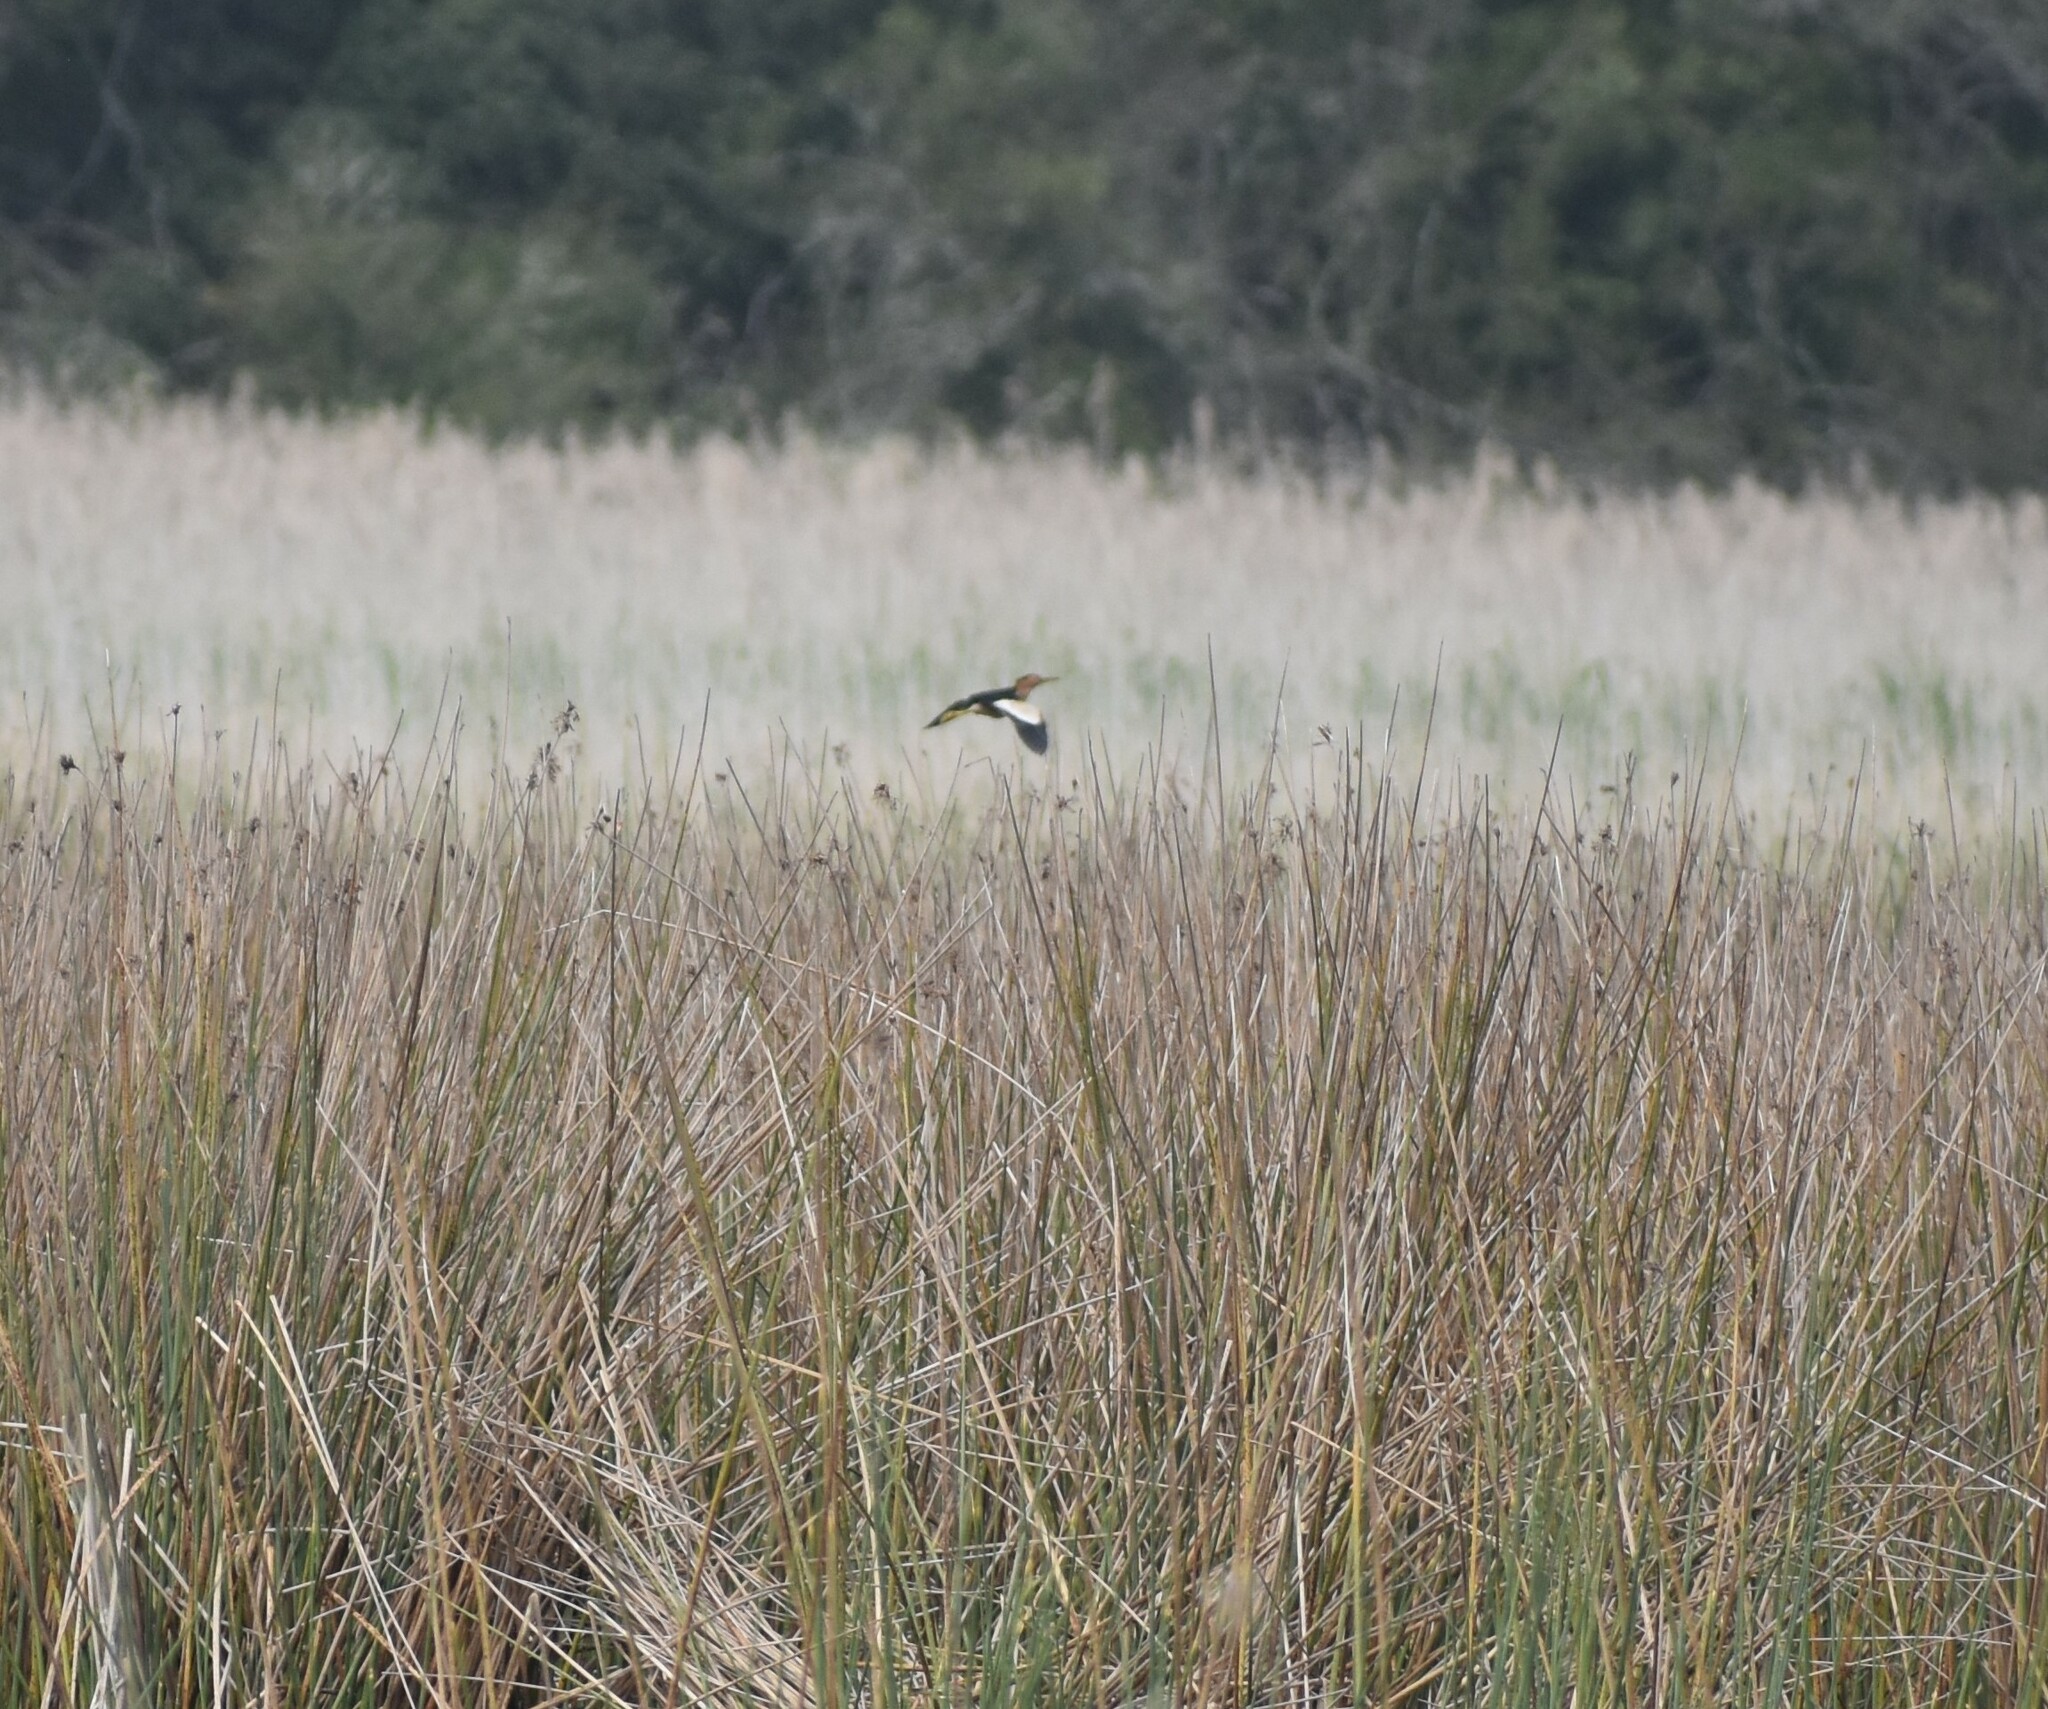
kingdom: Animalia
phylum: Chordata
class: Aves
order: Pelecaniformes
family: Ardeidae
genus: Ixobrychus
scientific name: Ixobrychus minutus
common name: Little bittern
